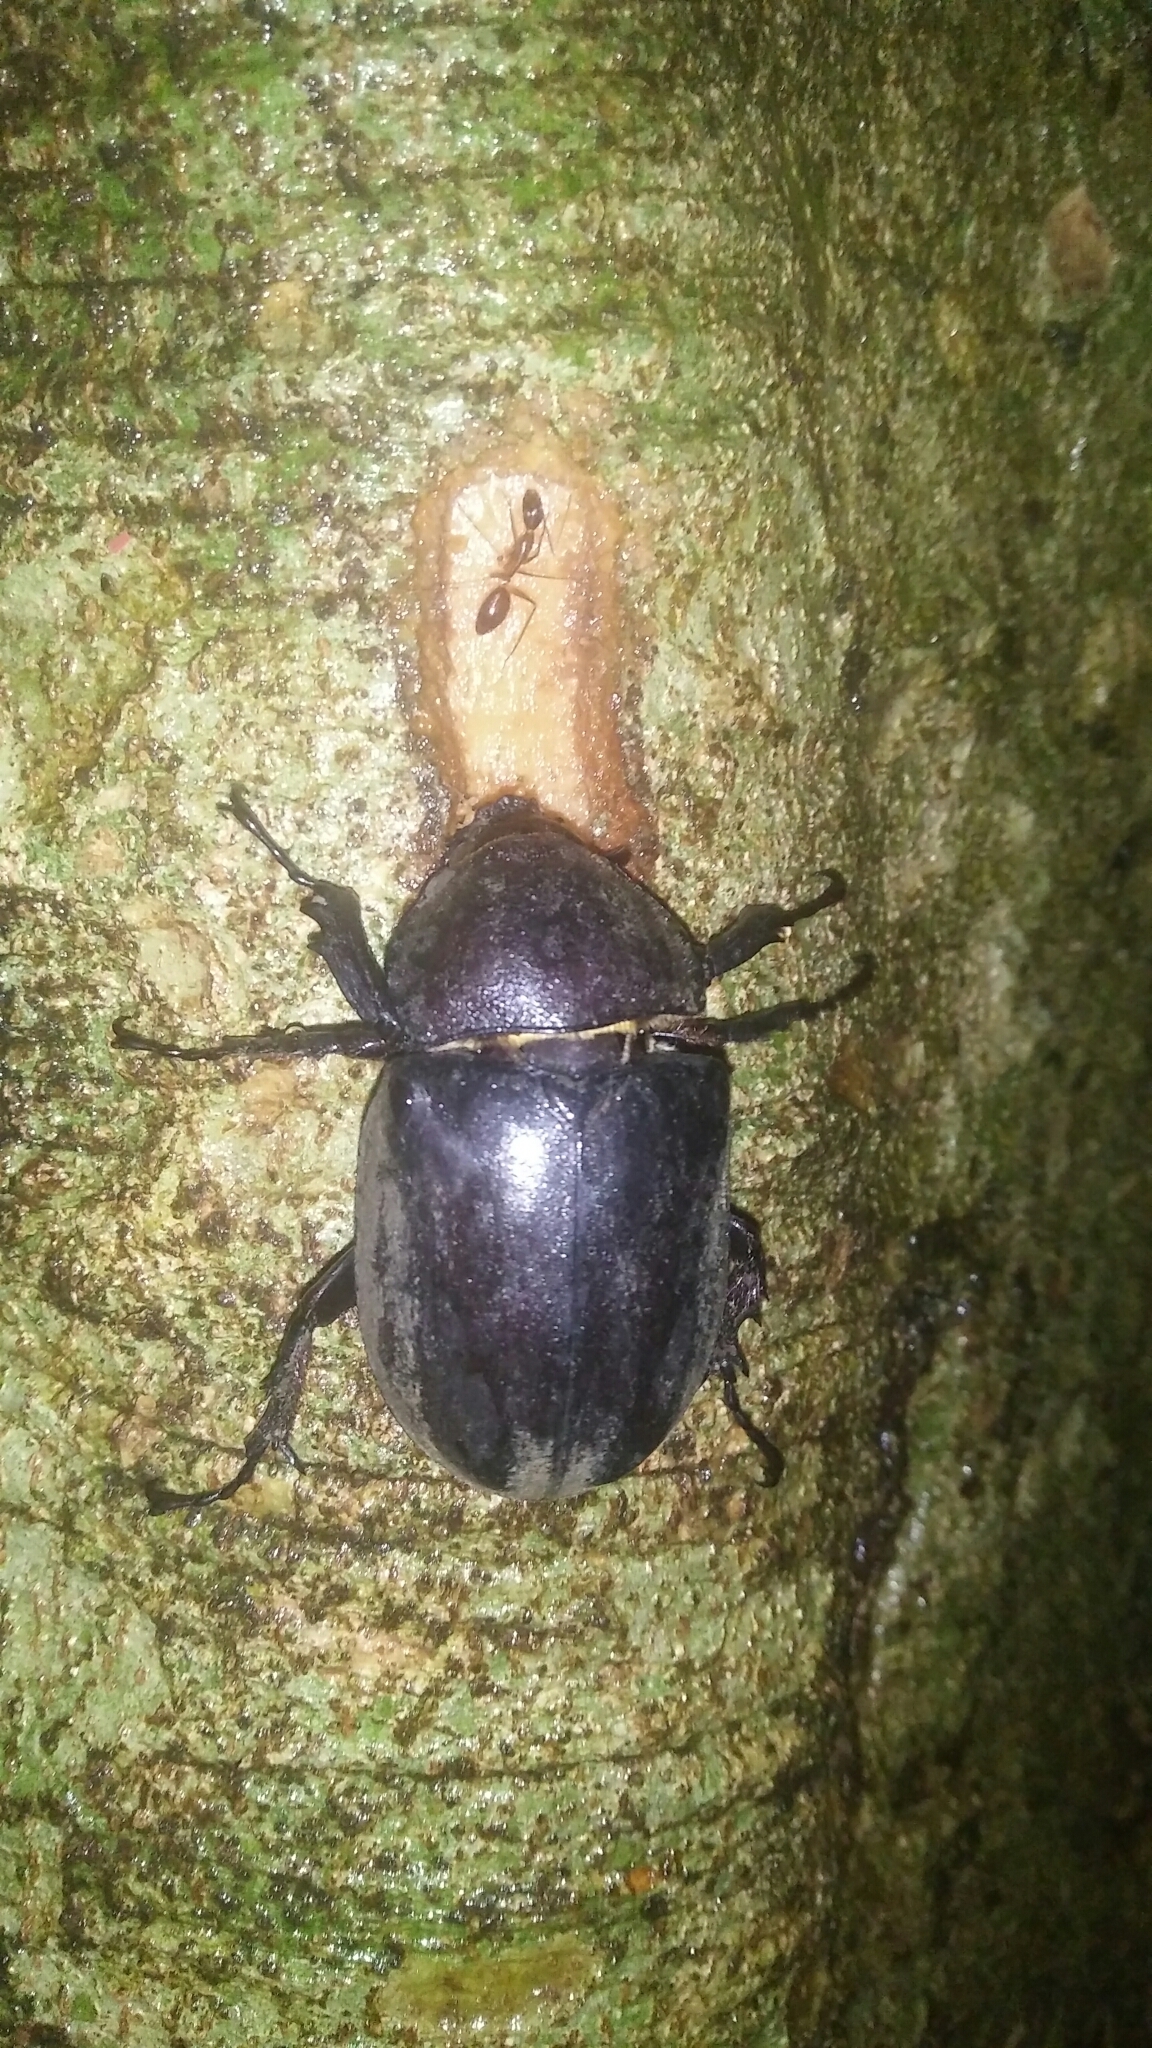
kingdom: Animalia
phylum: Arthropoda
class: Insecta
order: Coleoptera
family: Scarabaeidae
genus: Trypoxylus
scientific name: Trypoxylus dichotomus
